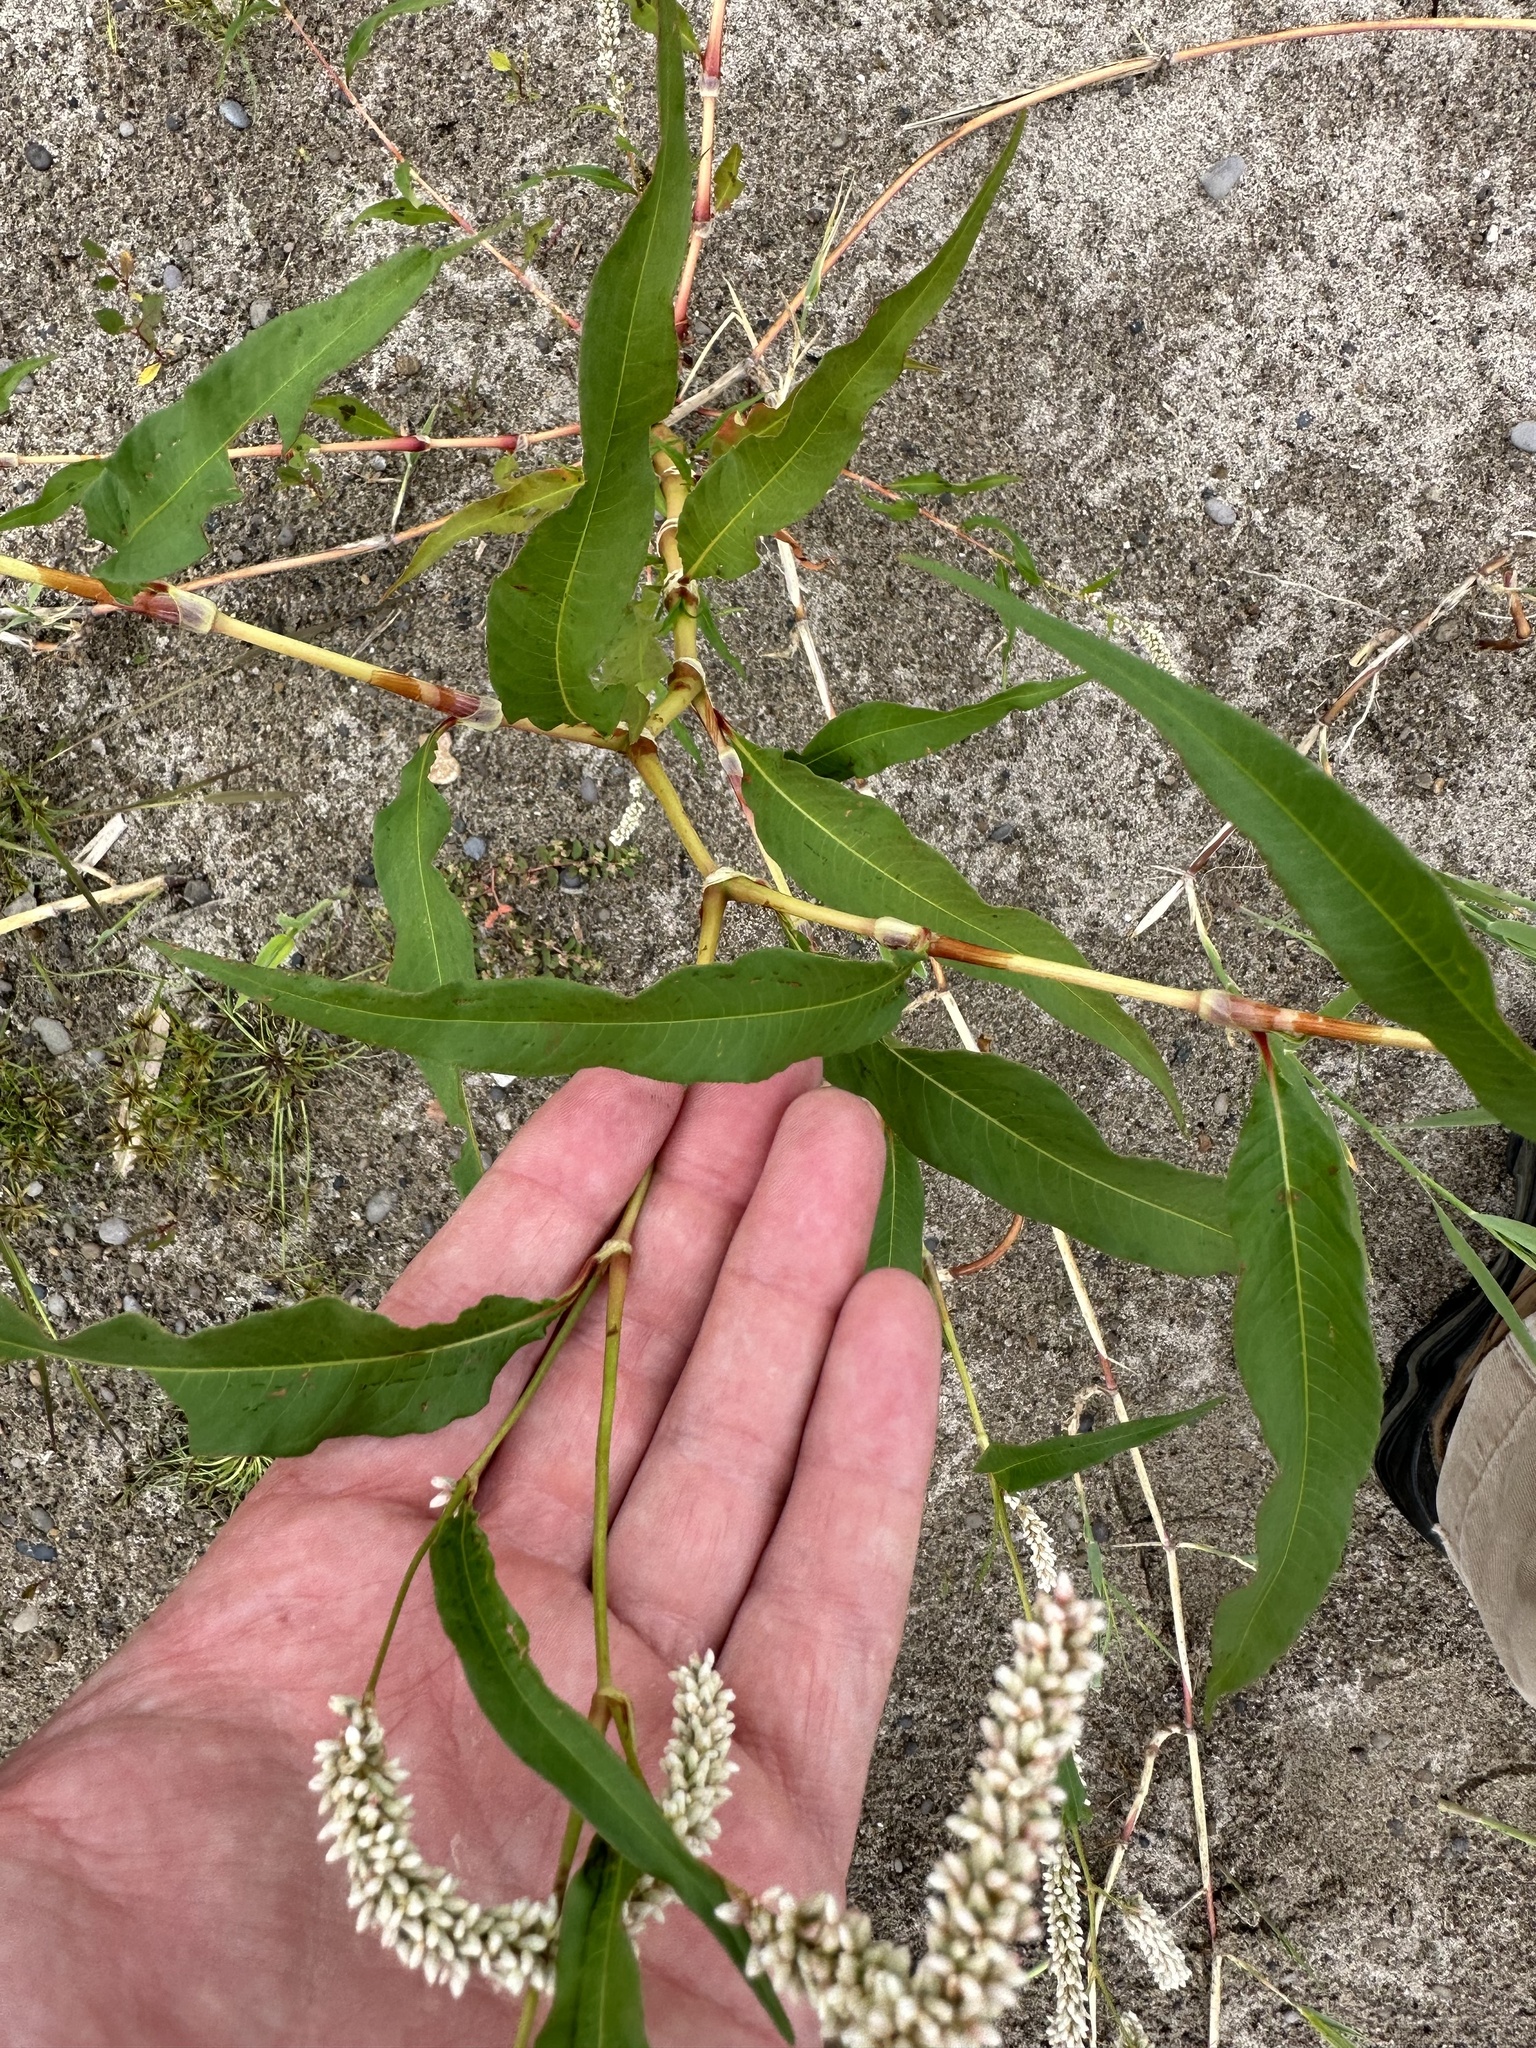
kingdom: Plantae
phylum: Tracheophyta
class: Magnoliopsida
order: Caryophyllales
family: Polygonaceae
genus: Persicaria
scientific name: Persicaria lapathifolia
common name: Curlytop knotweed
